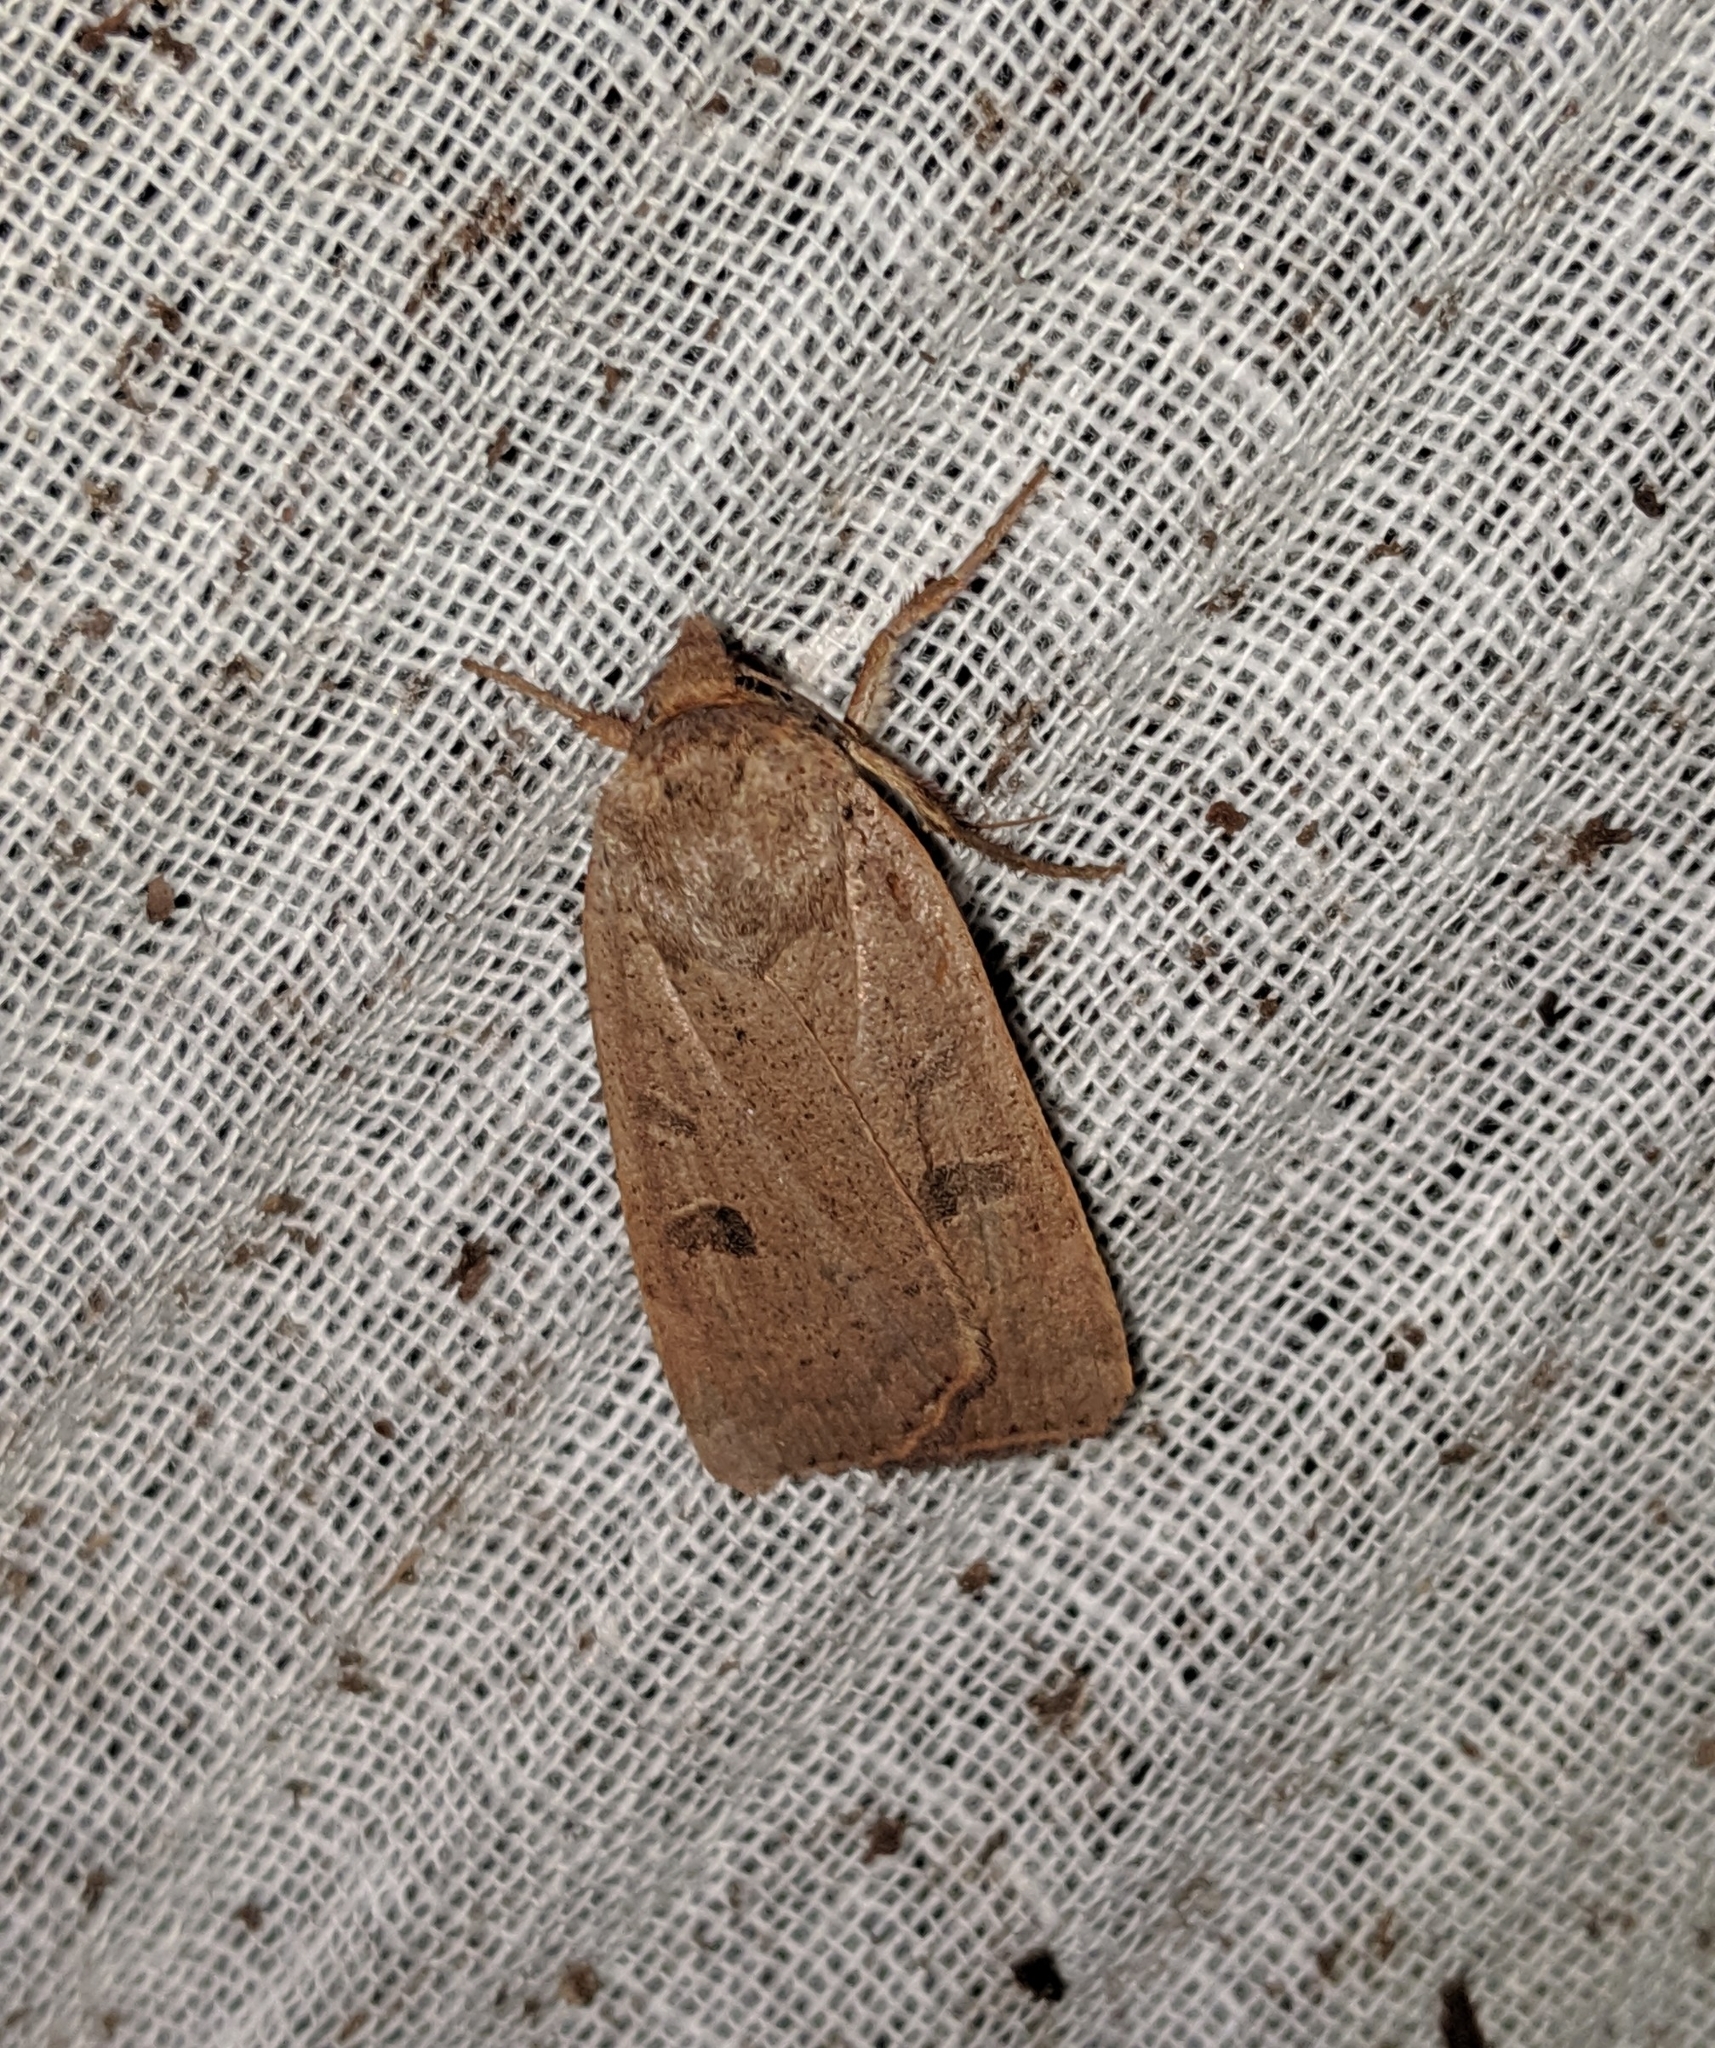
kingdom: Animalia
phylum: Arthropoda
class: Insecta
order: Lepidoptera
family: Noctuidae
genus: Noctua
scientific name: Noctua comes
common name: Lesser yellow underwing
